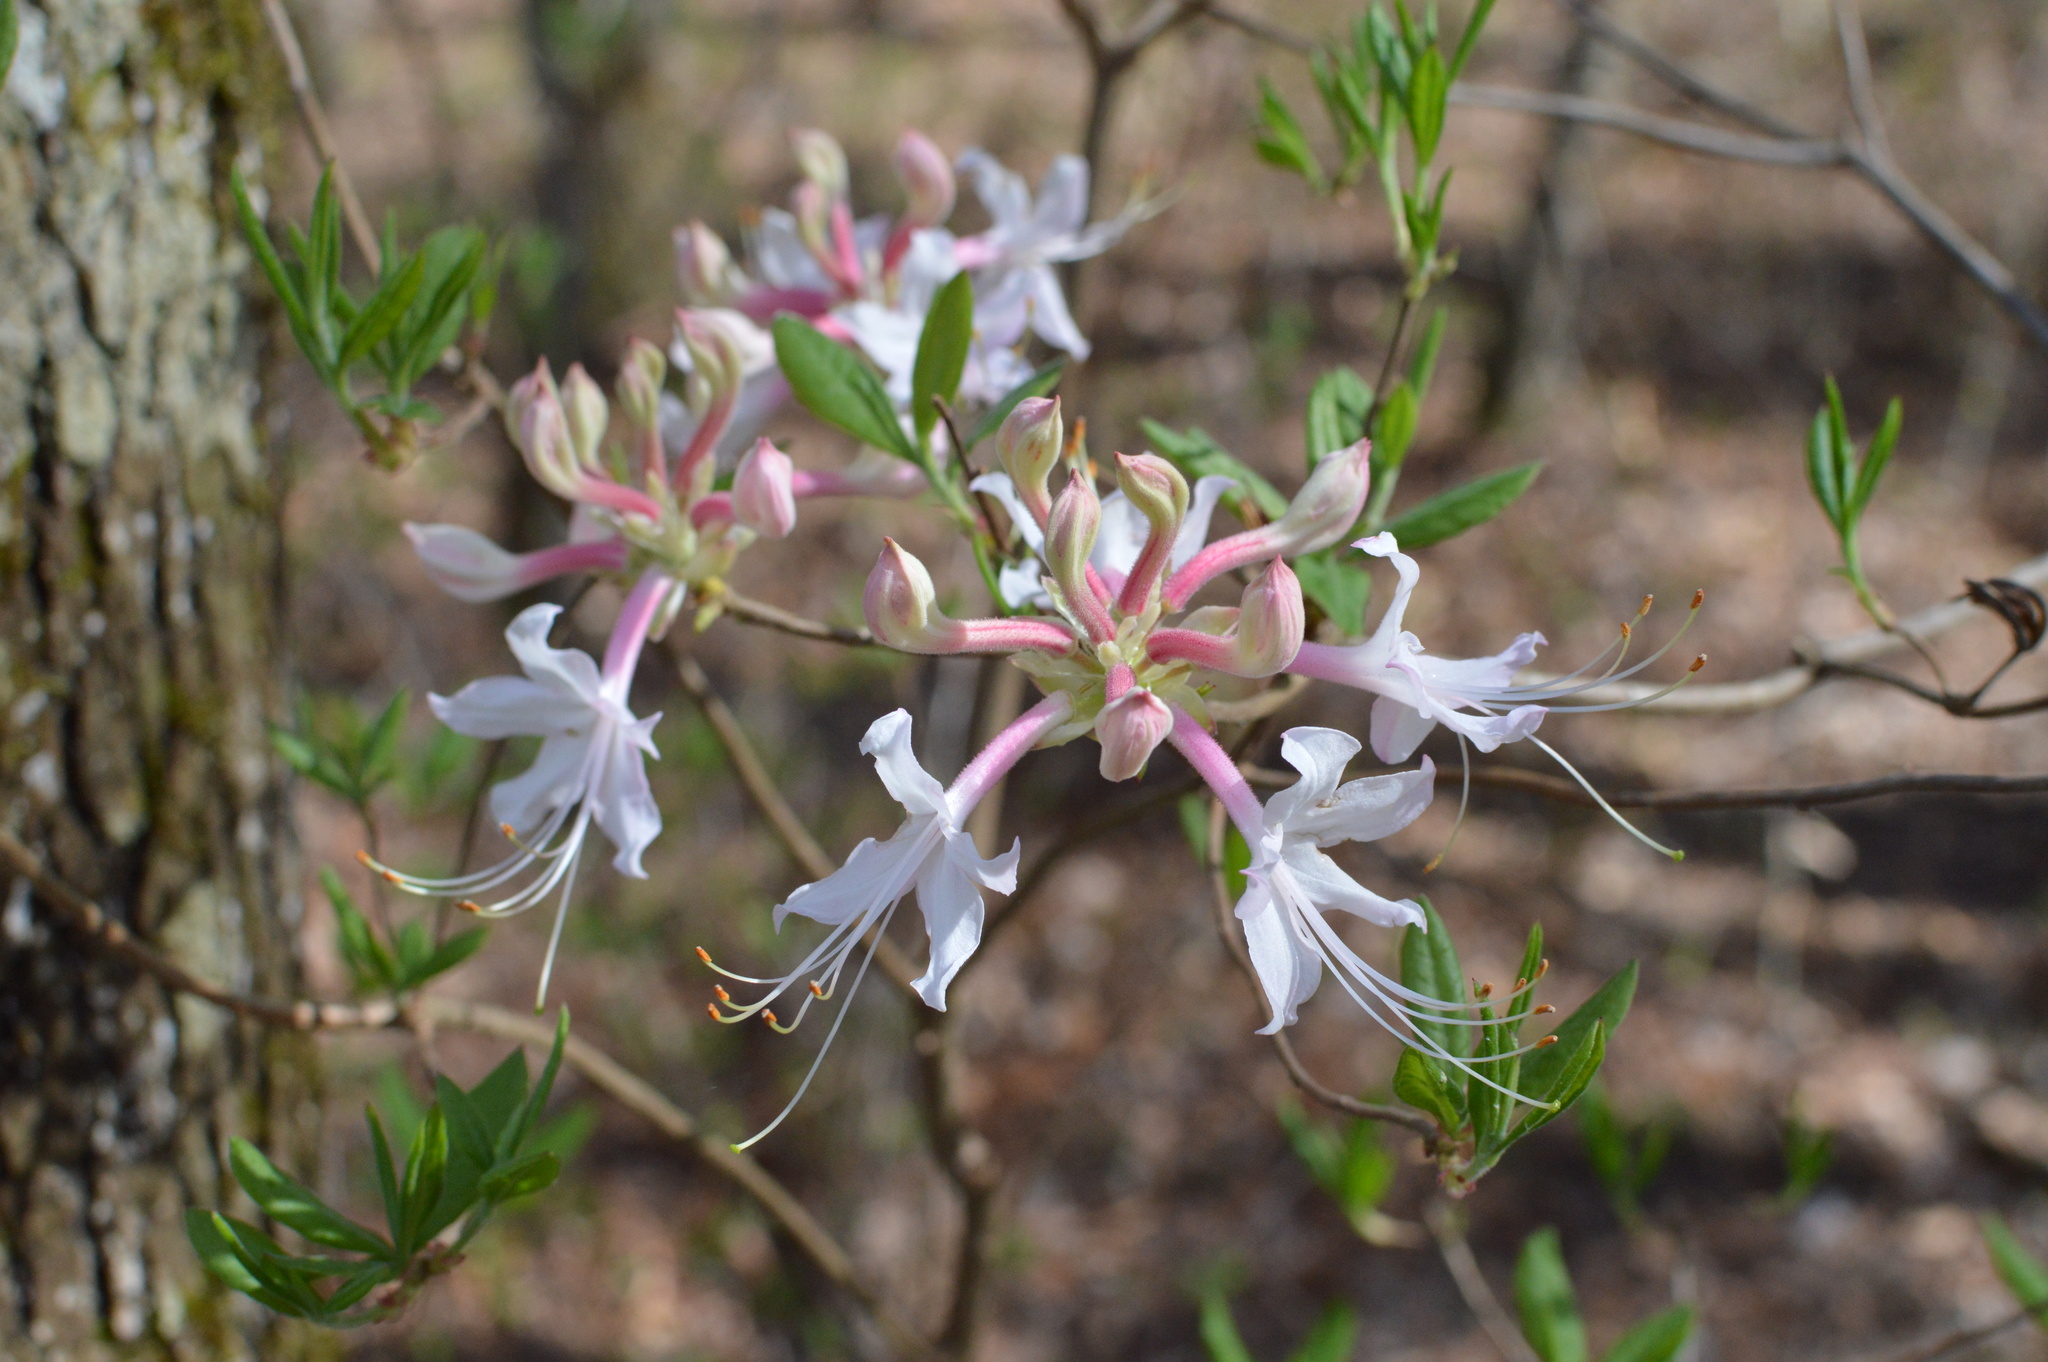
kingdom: Plantae
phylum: Tracheophyta
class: Magnoliopsida
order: Ericales
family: Ericaceae
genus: Rhododendron
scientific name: Rhododendron canescens
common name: Mountain azalea
